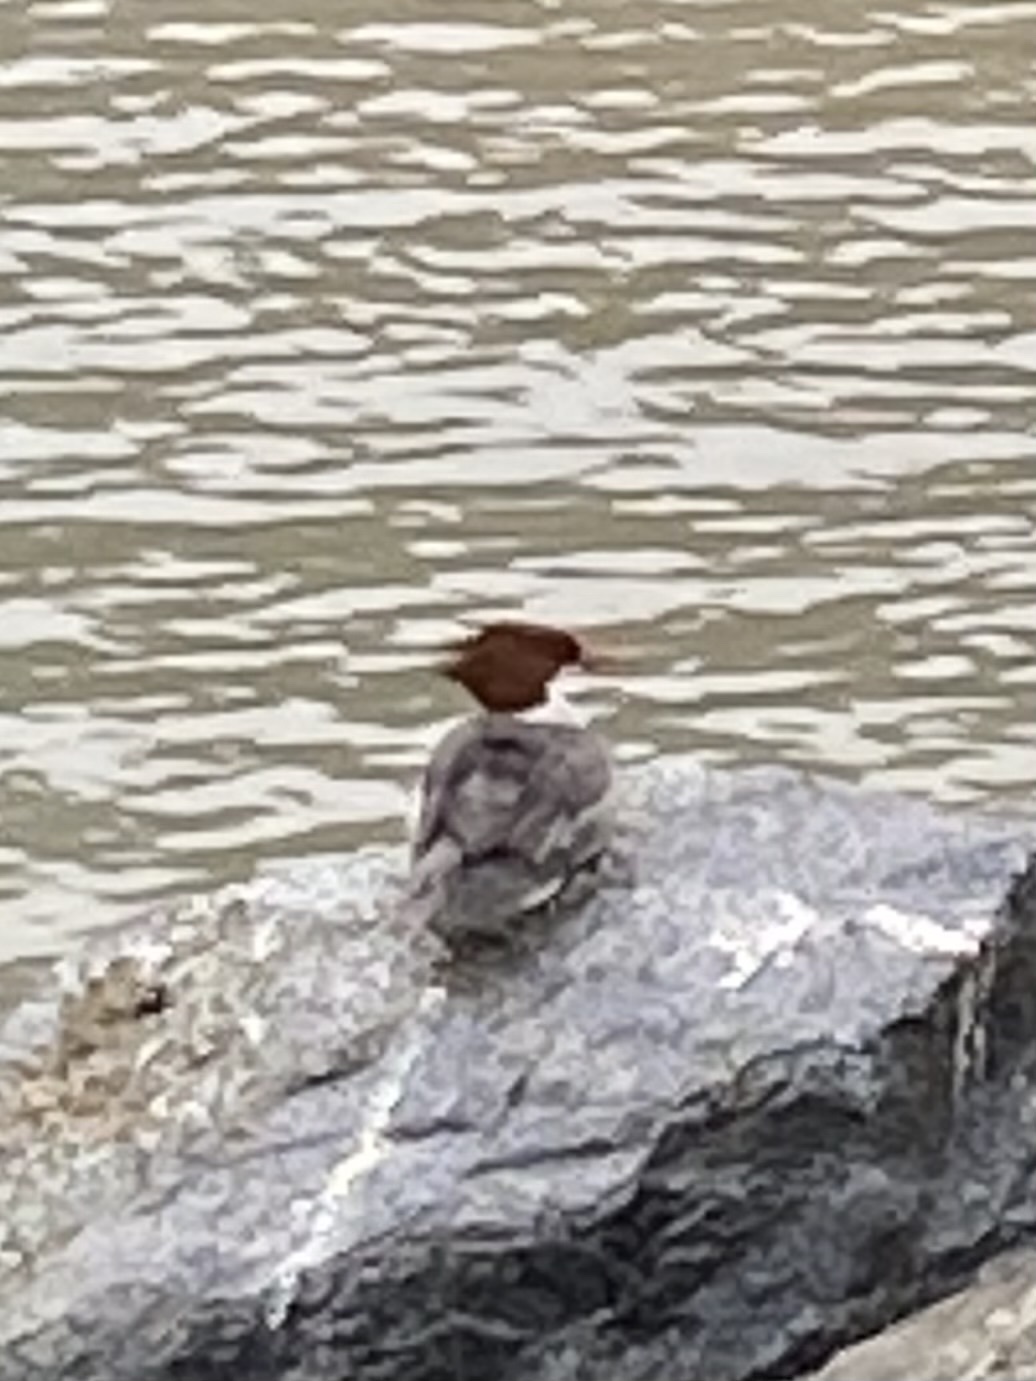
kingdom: Animalia
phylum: Chordata
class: Aves
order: Anseriformes
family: Anatidae
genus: Mergus
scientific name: Mergus merganser
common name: Common merganser
